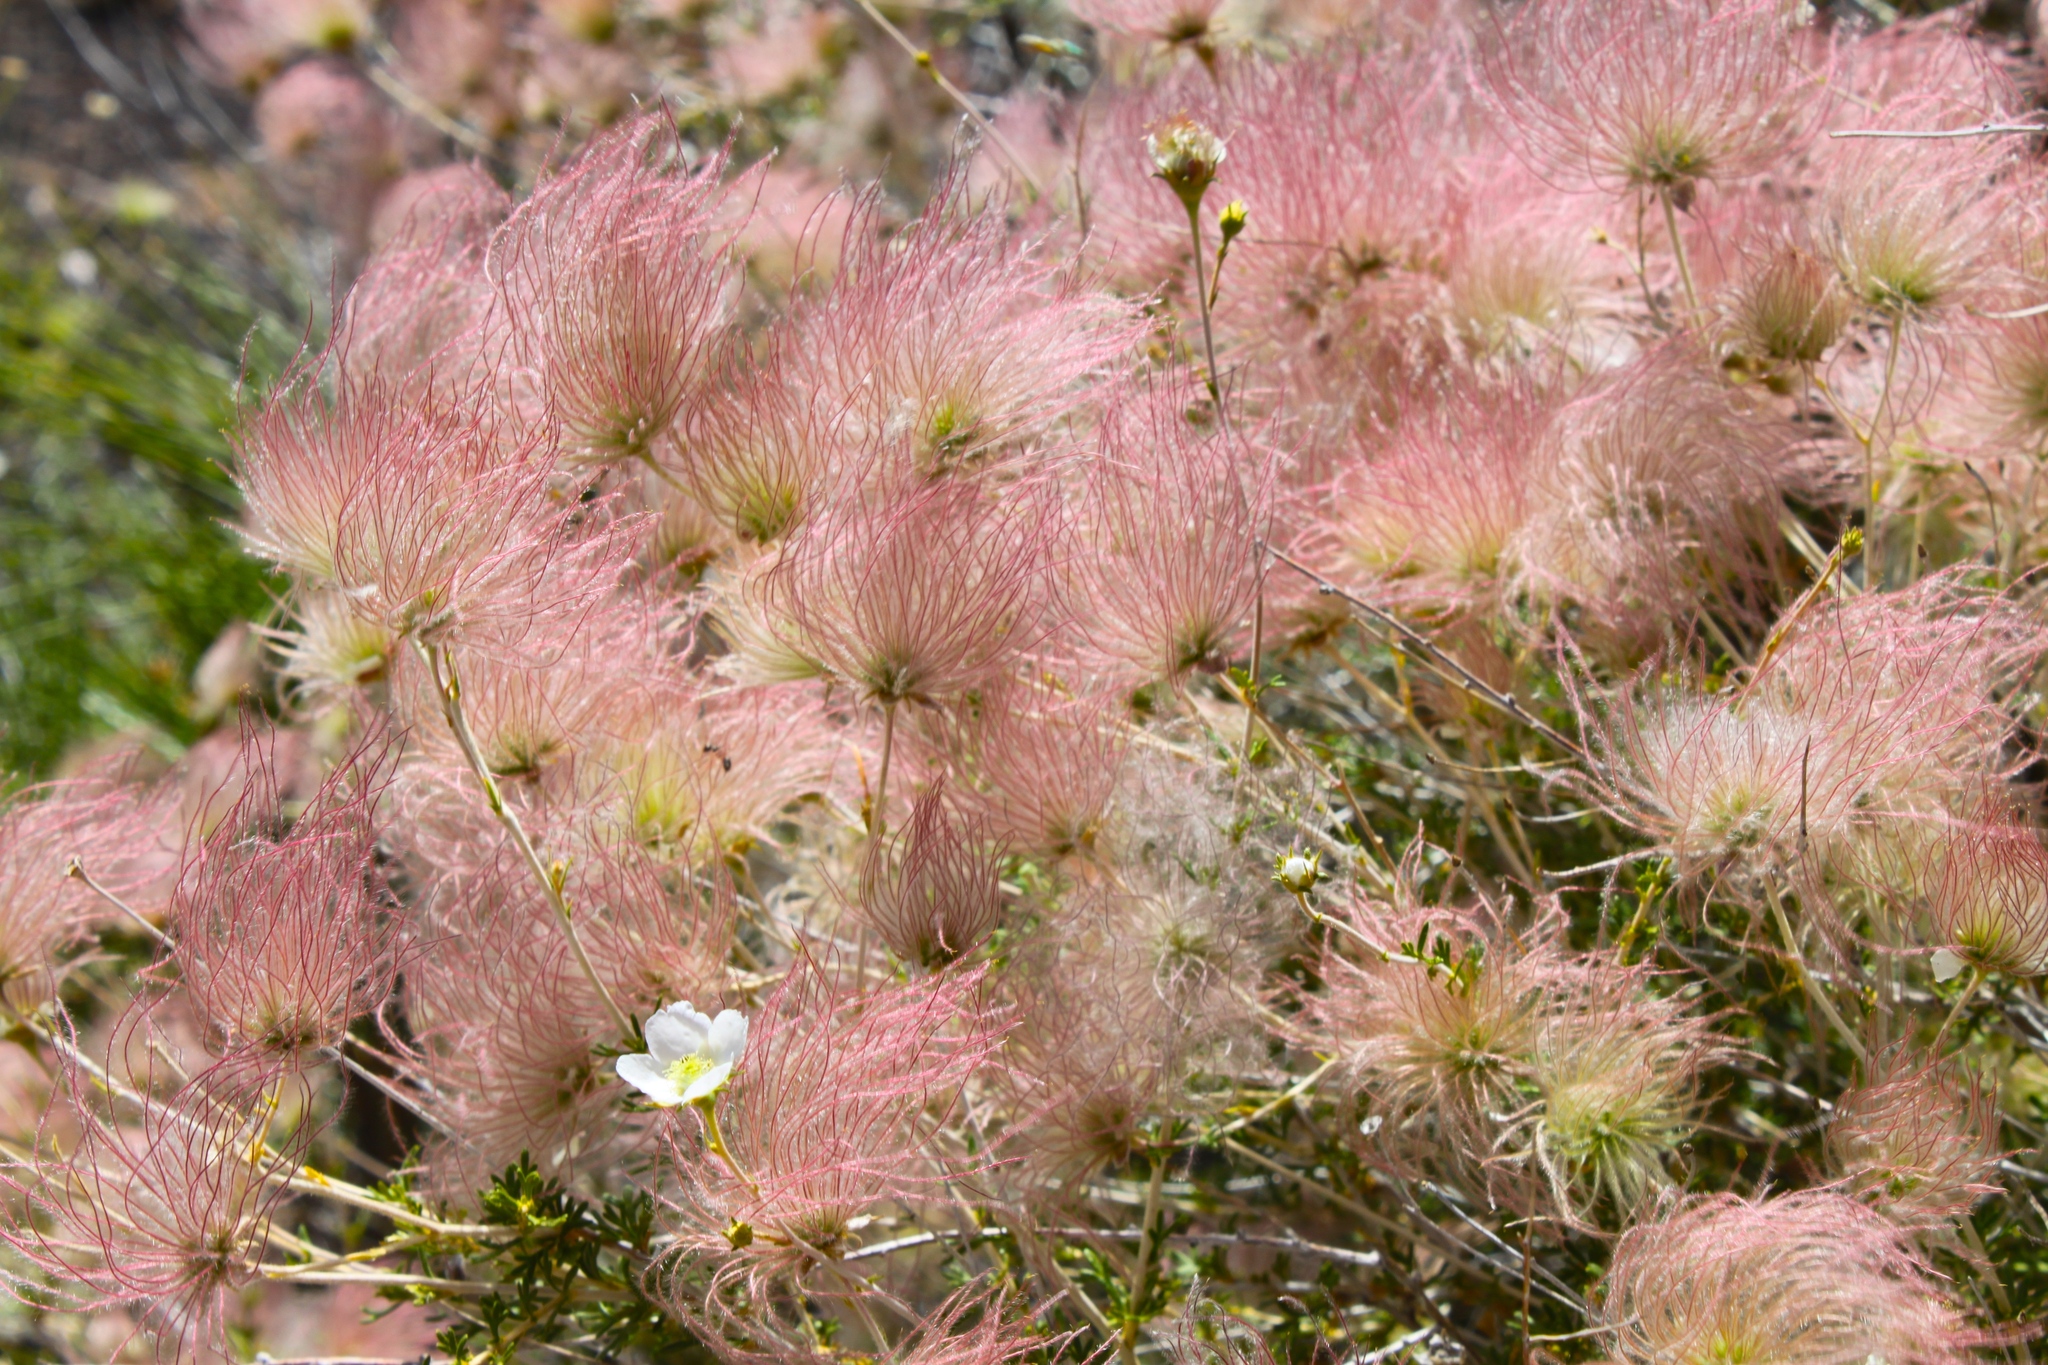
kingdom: Plantae
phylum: Tracheophyta
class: Magnoliopsida
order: Rosales
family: Rosaceae
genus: Fallugia
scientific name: Fallugia paradoxa
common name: Apache-plume
